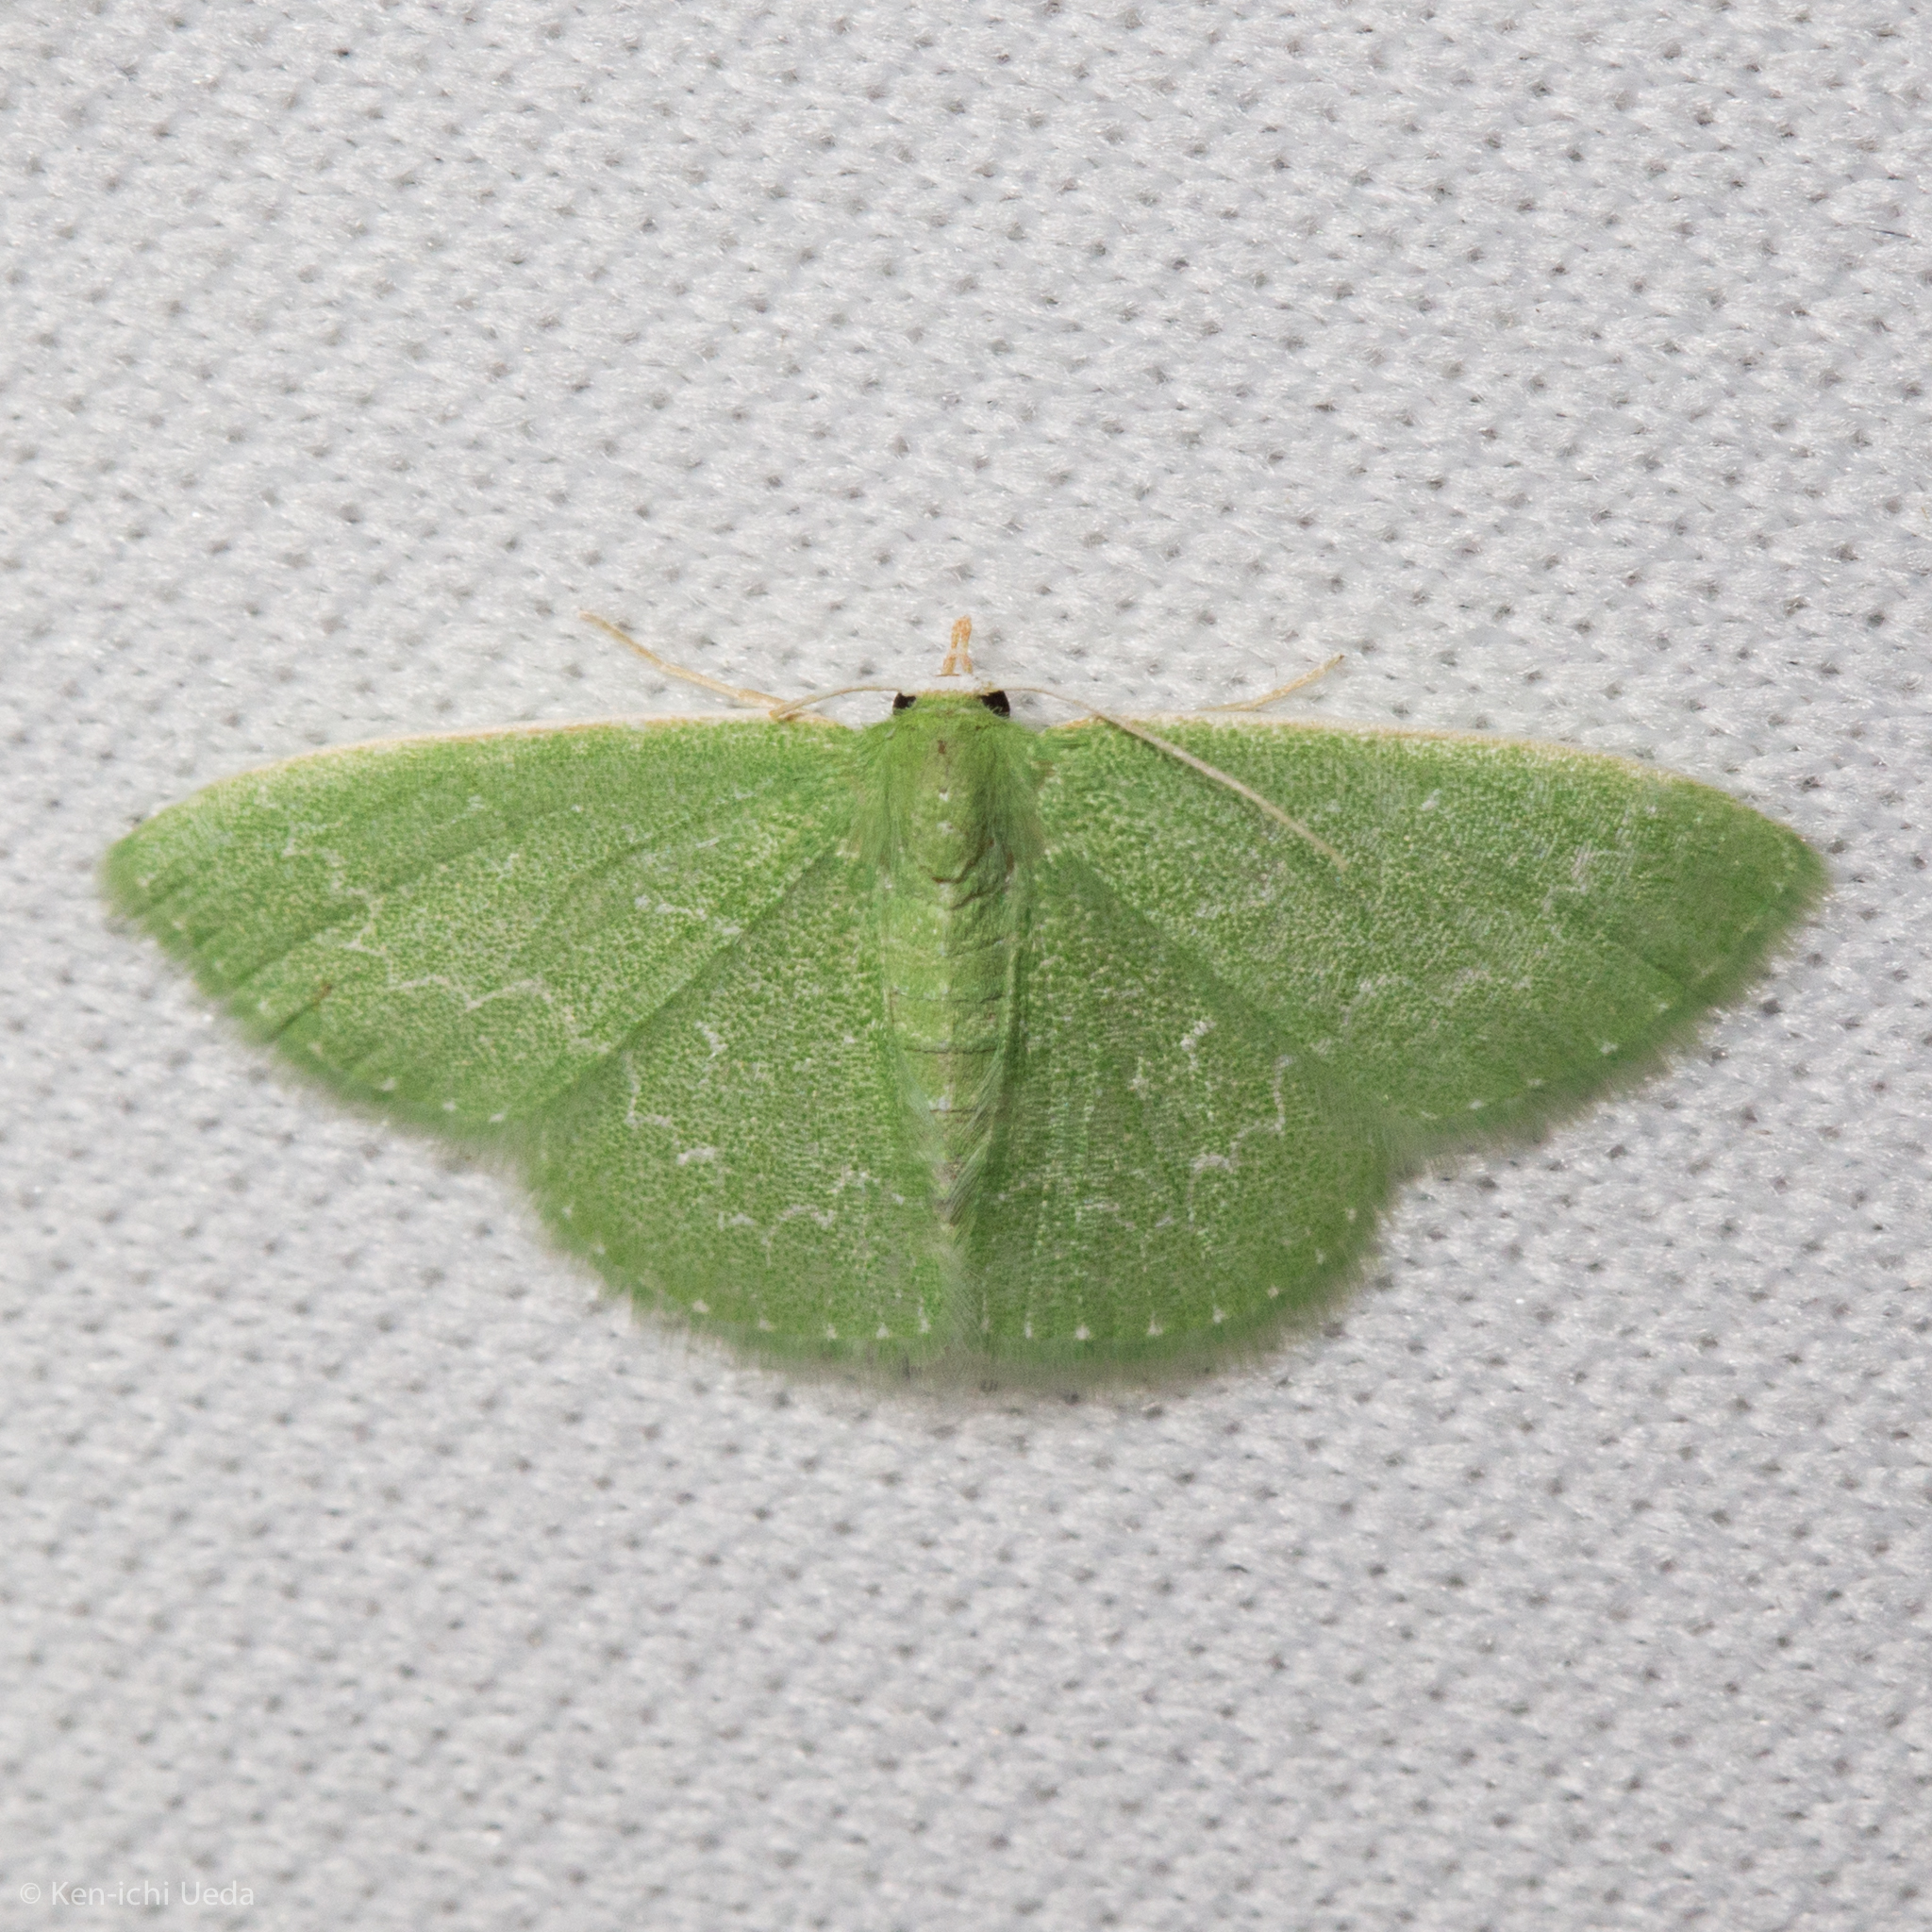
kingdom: Animalia
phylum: Arthropoda
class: Insecta
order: Lepidoptera
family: Geometridae
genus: Synchlora
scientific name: Synchlora frondaria
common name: Southern emerald
